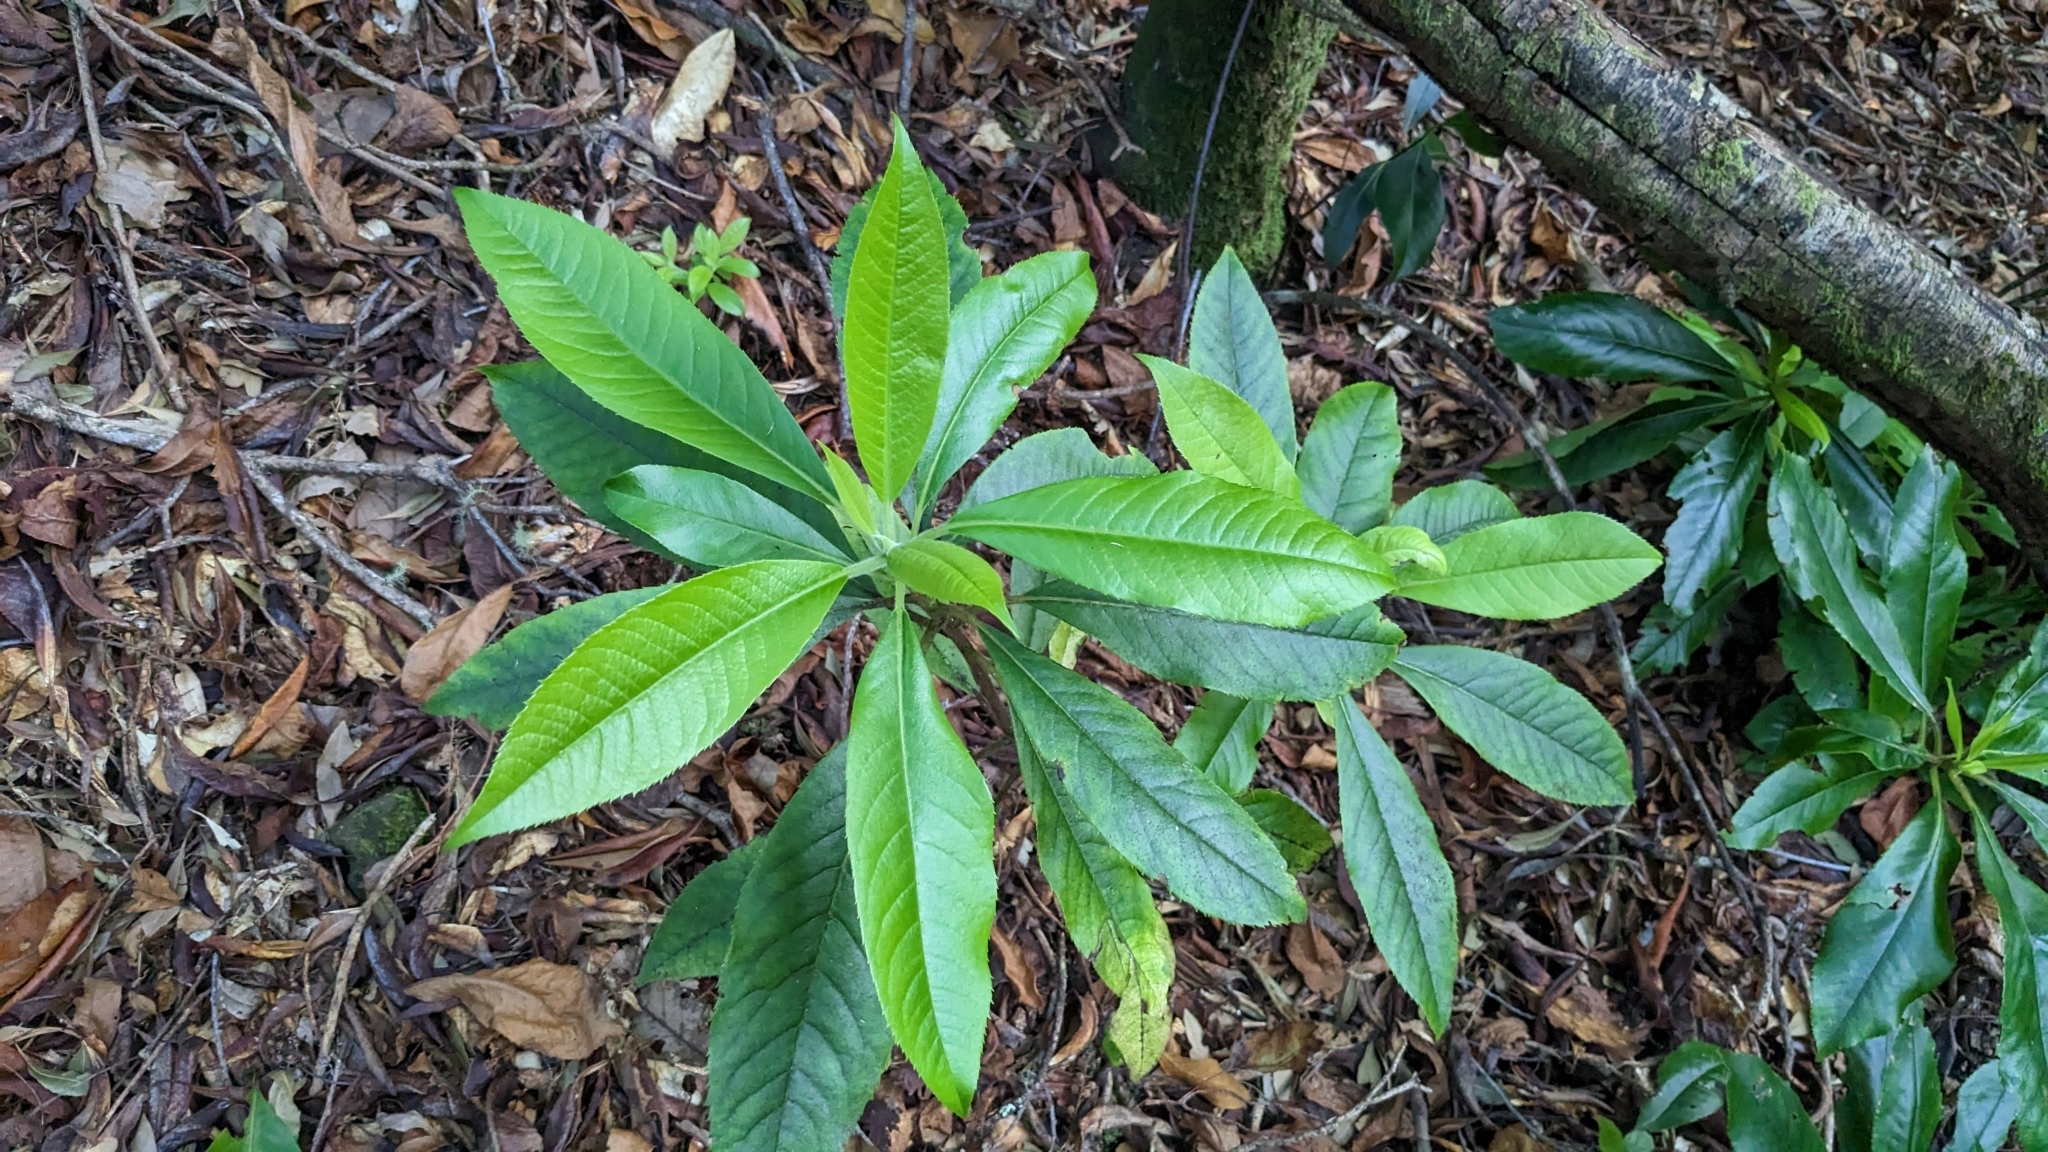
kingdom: Plantae
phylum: Tracheophyta
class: Magnoliopsida
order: Ericales
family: Clethraceae
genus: Clethra
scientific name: Clethra arborea
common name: Lily-of-the-valley-tree
